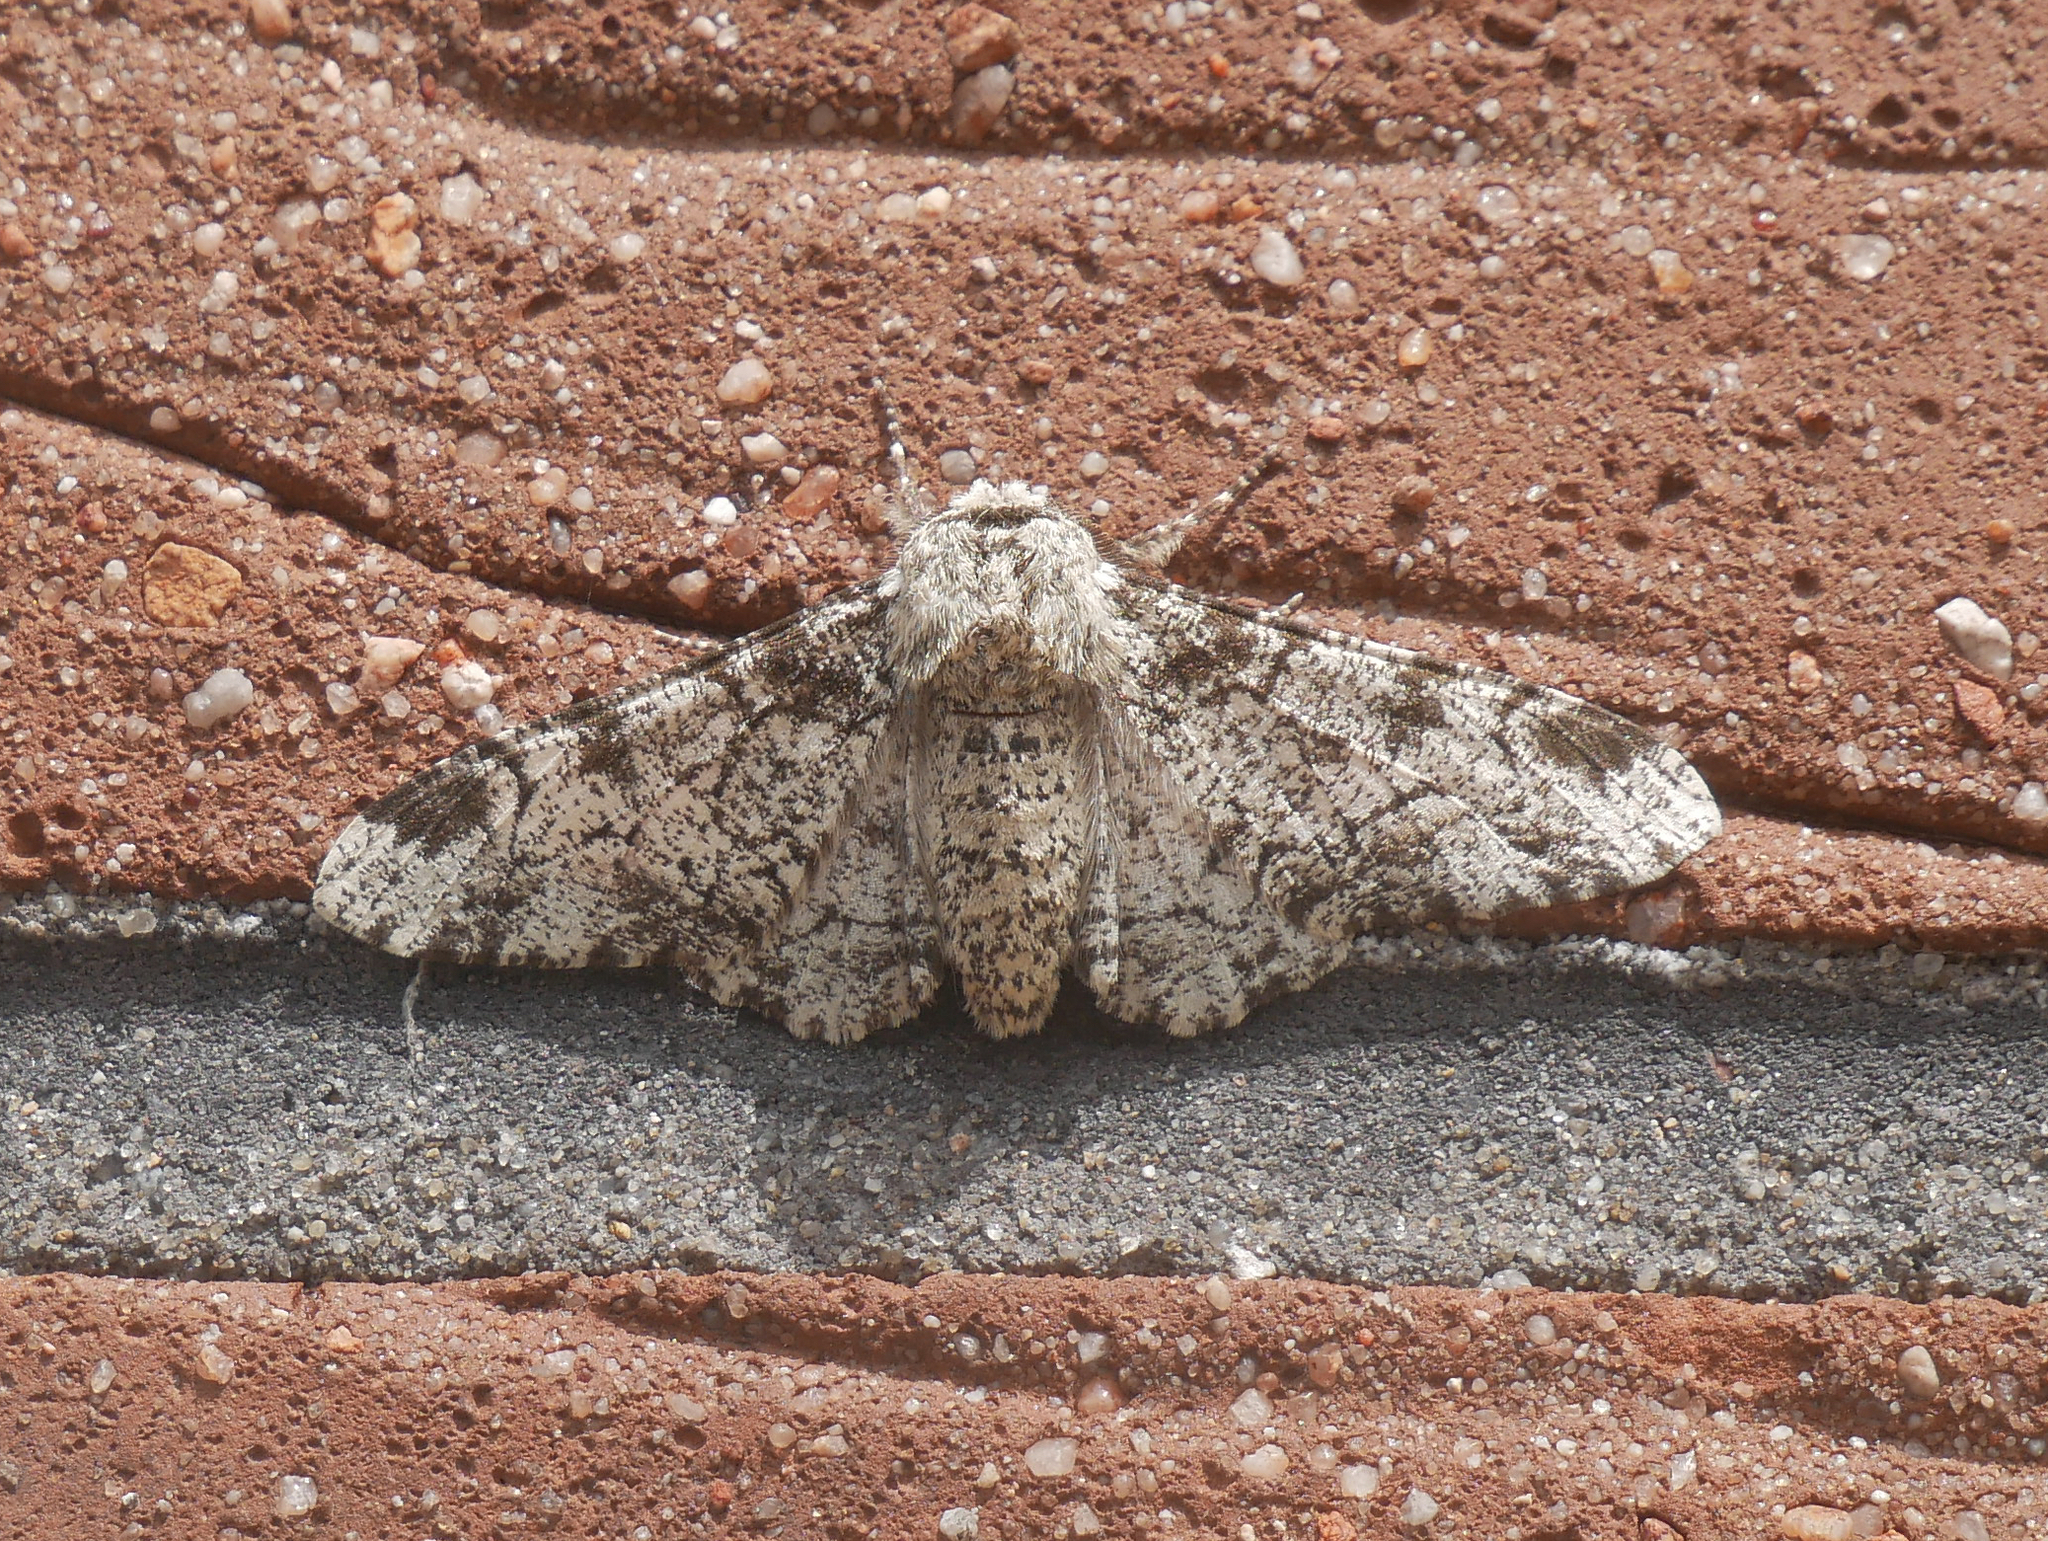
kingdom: Animalia
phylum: Arthropoda
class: Insecta
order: Lepidoptera
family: Geometridae
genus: Biston
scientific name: Biston betularia
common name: Peppered moth
